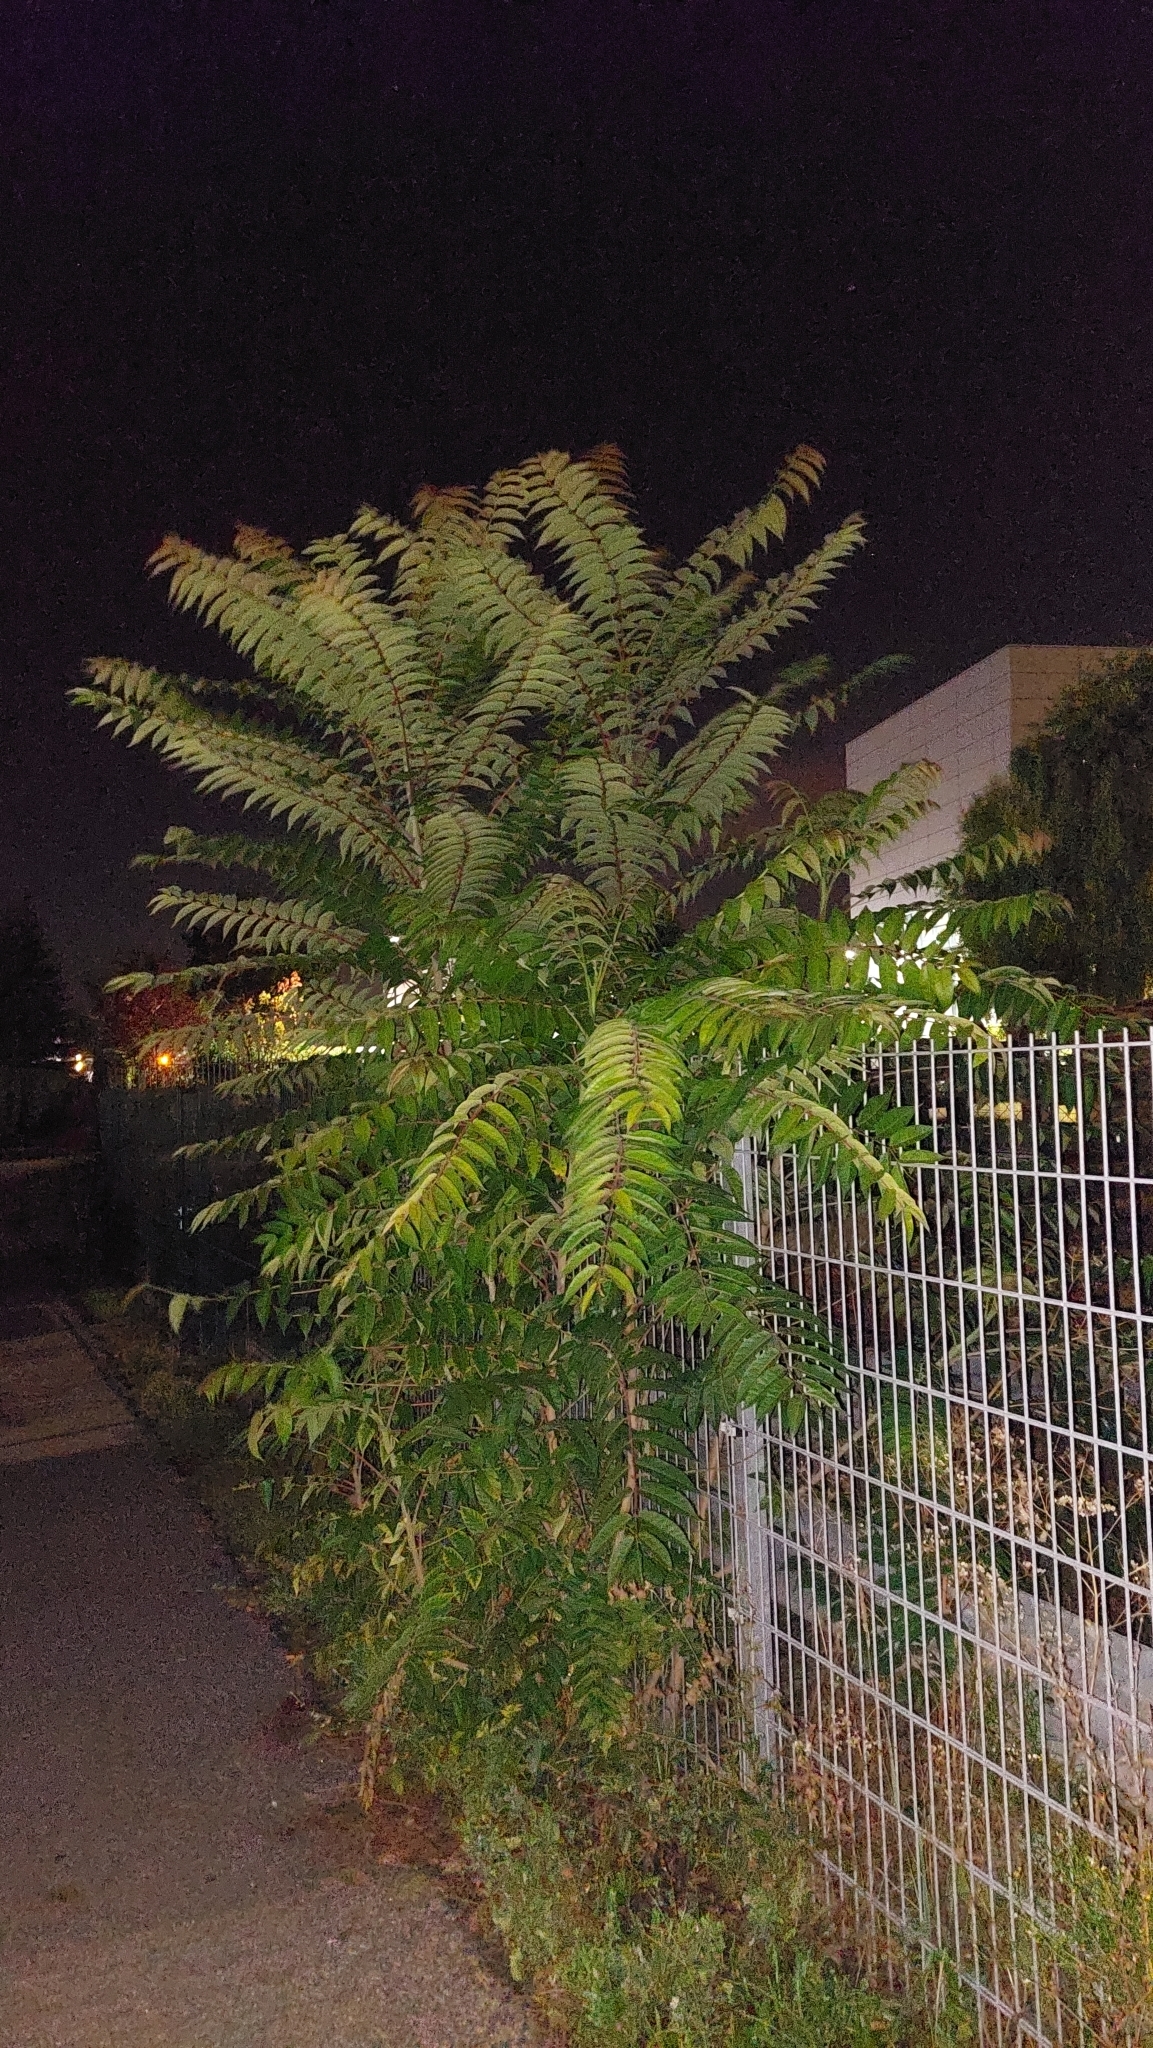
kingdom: Plantae
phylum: Tracheophyta
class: Magnoliopsida
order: Sapindales
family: Simaroubaceae
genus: Ailanthus
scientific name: Ailanthus altissima
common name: Tree-of-heaven
